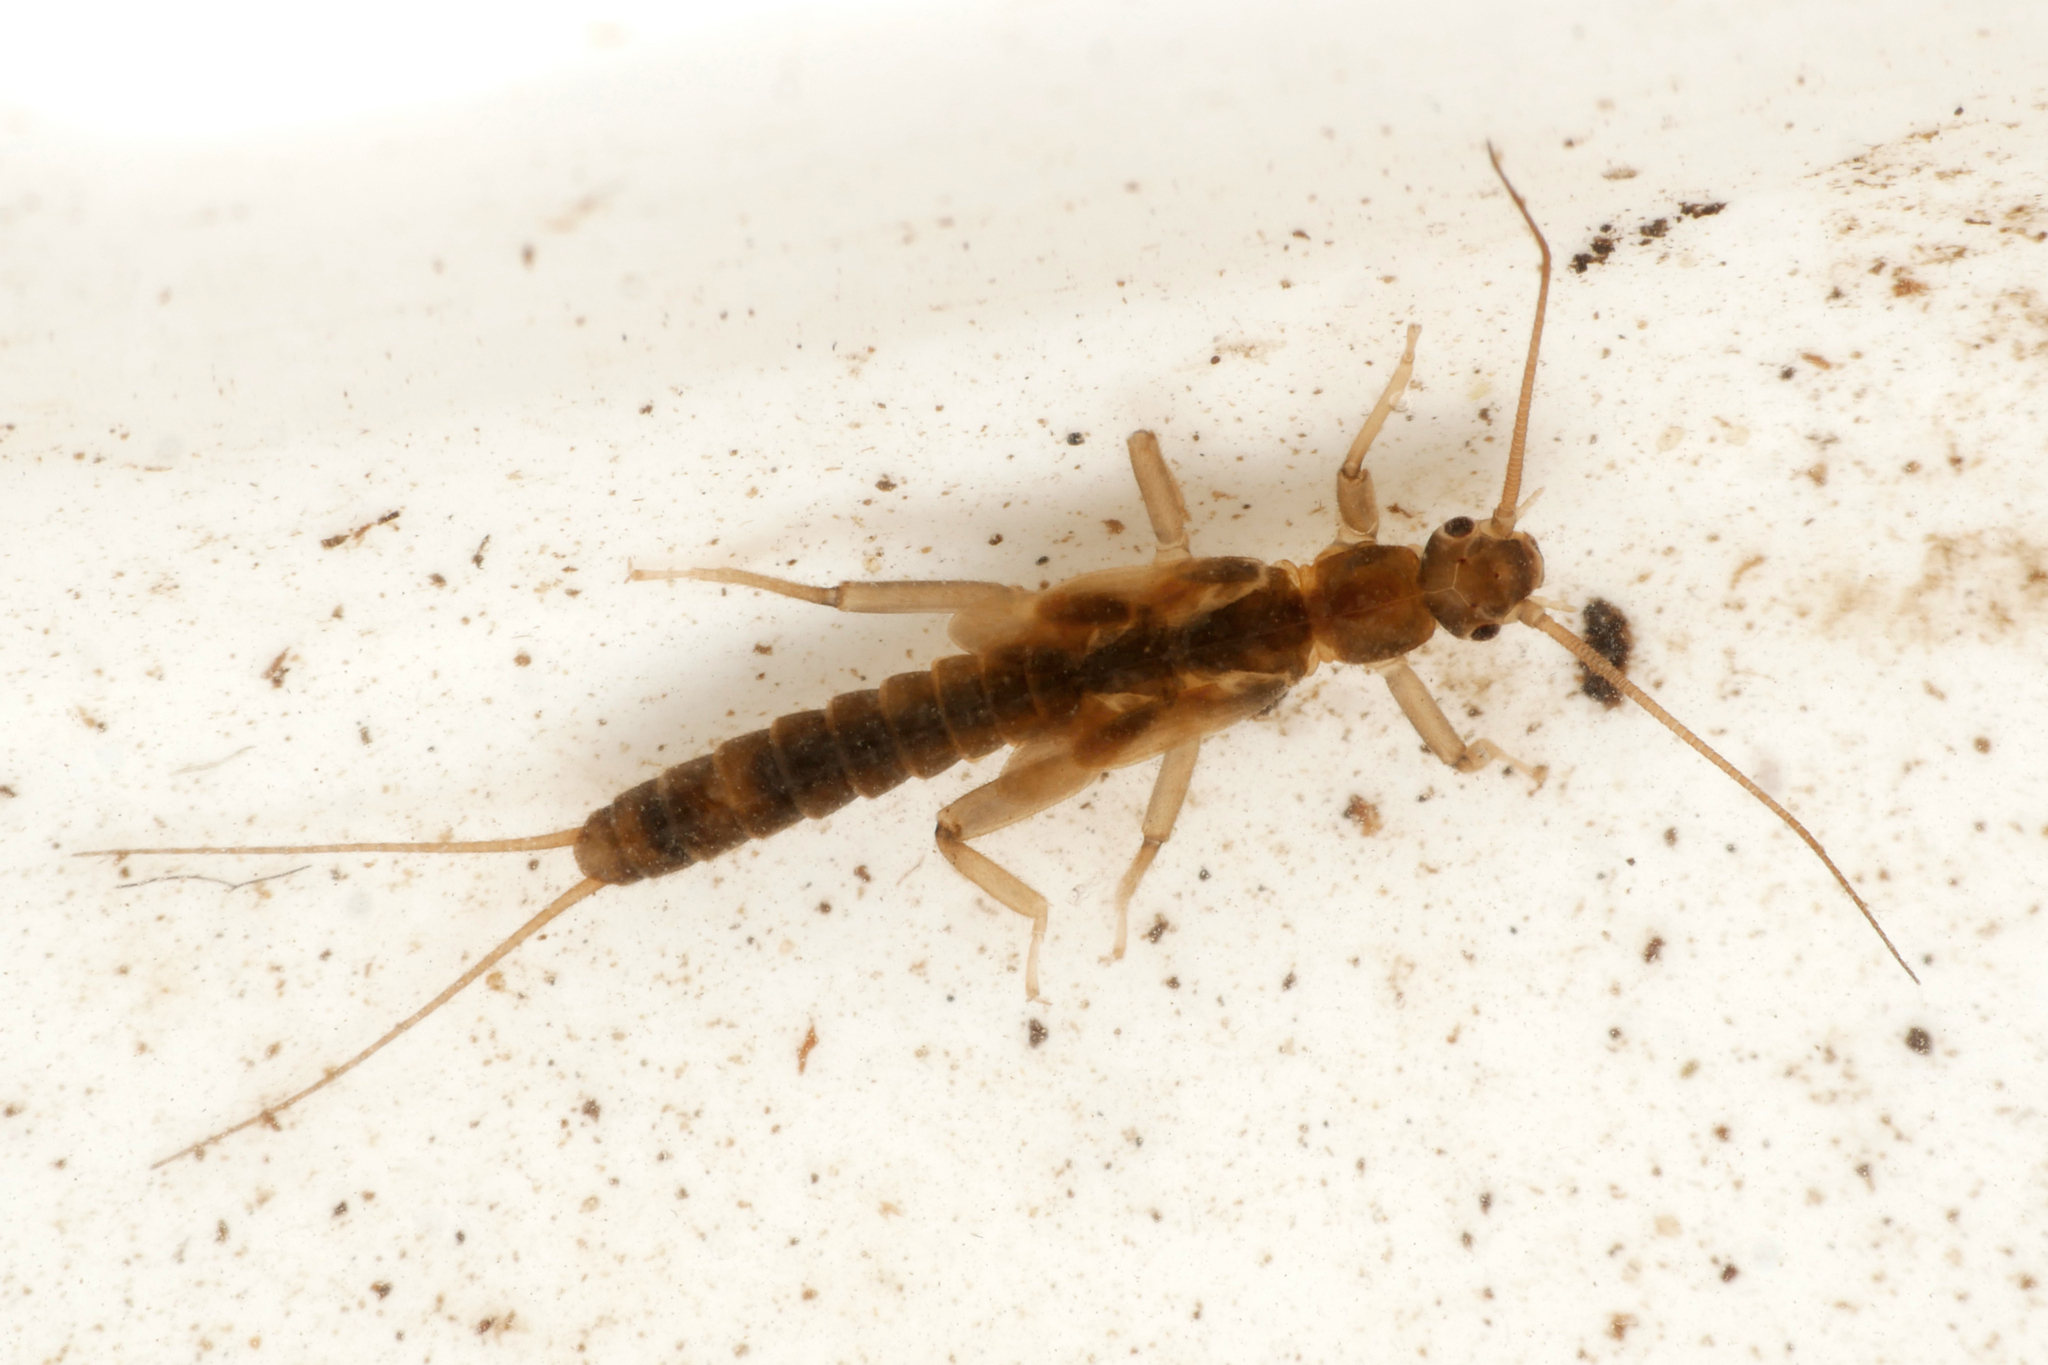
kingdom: Animalia
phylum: Arthropoda
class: Insecta
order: Plecoptera
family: Capniidae
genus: Zwicknia
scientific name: Zwicknia bifrons
